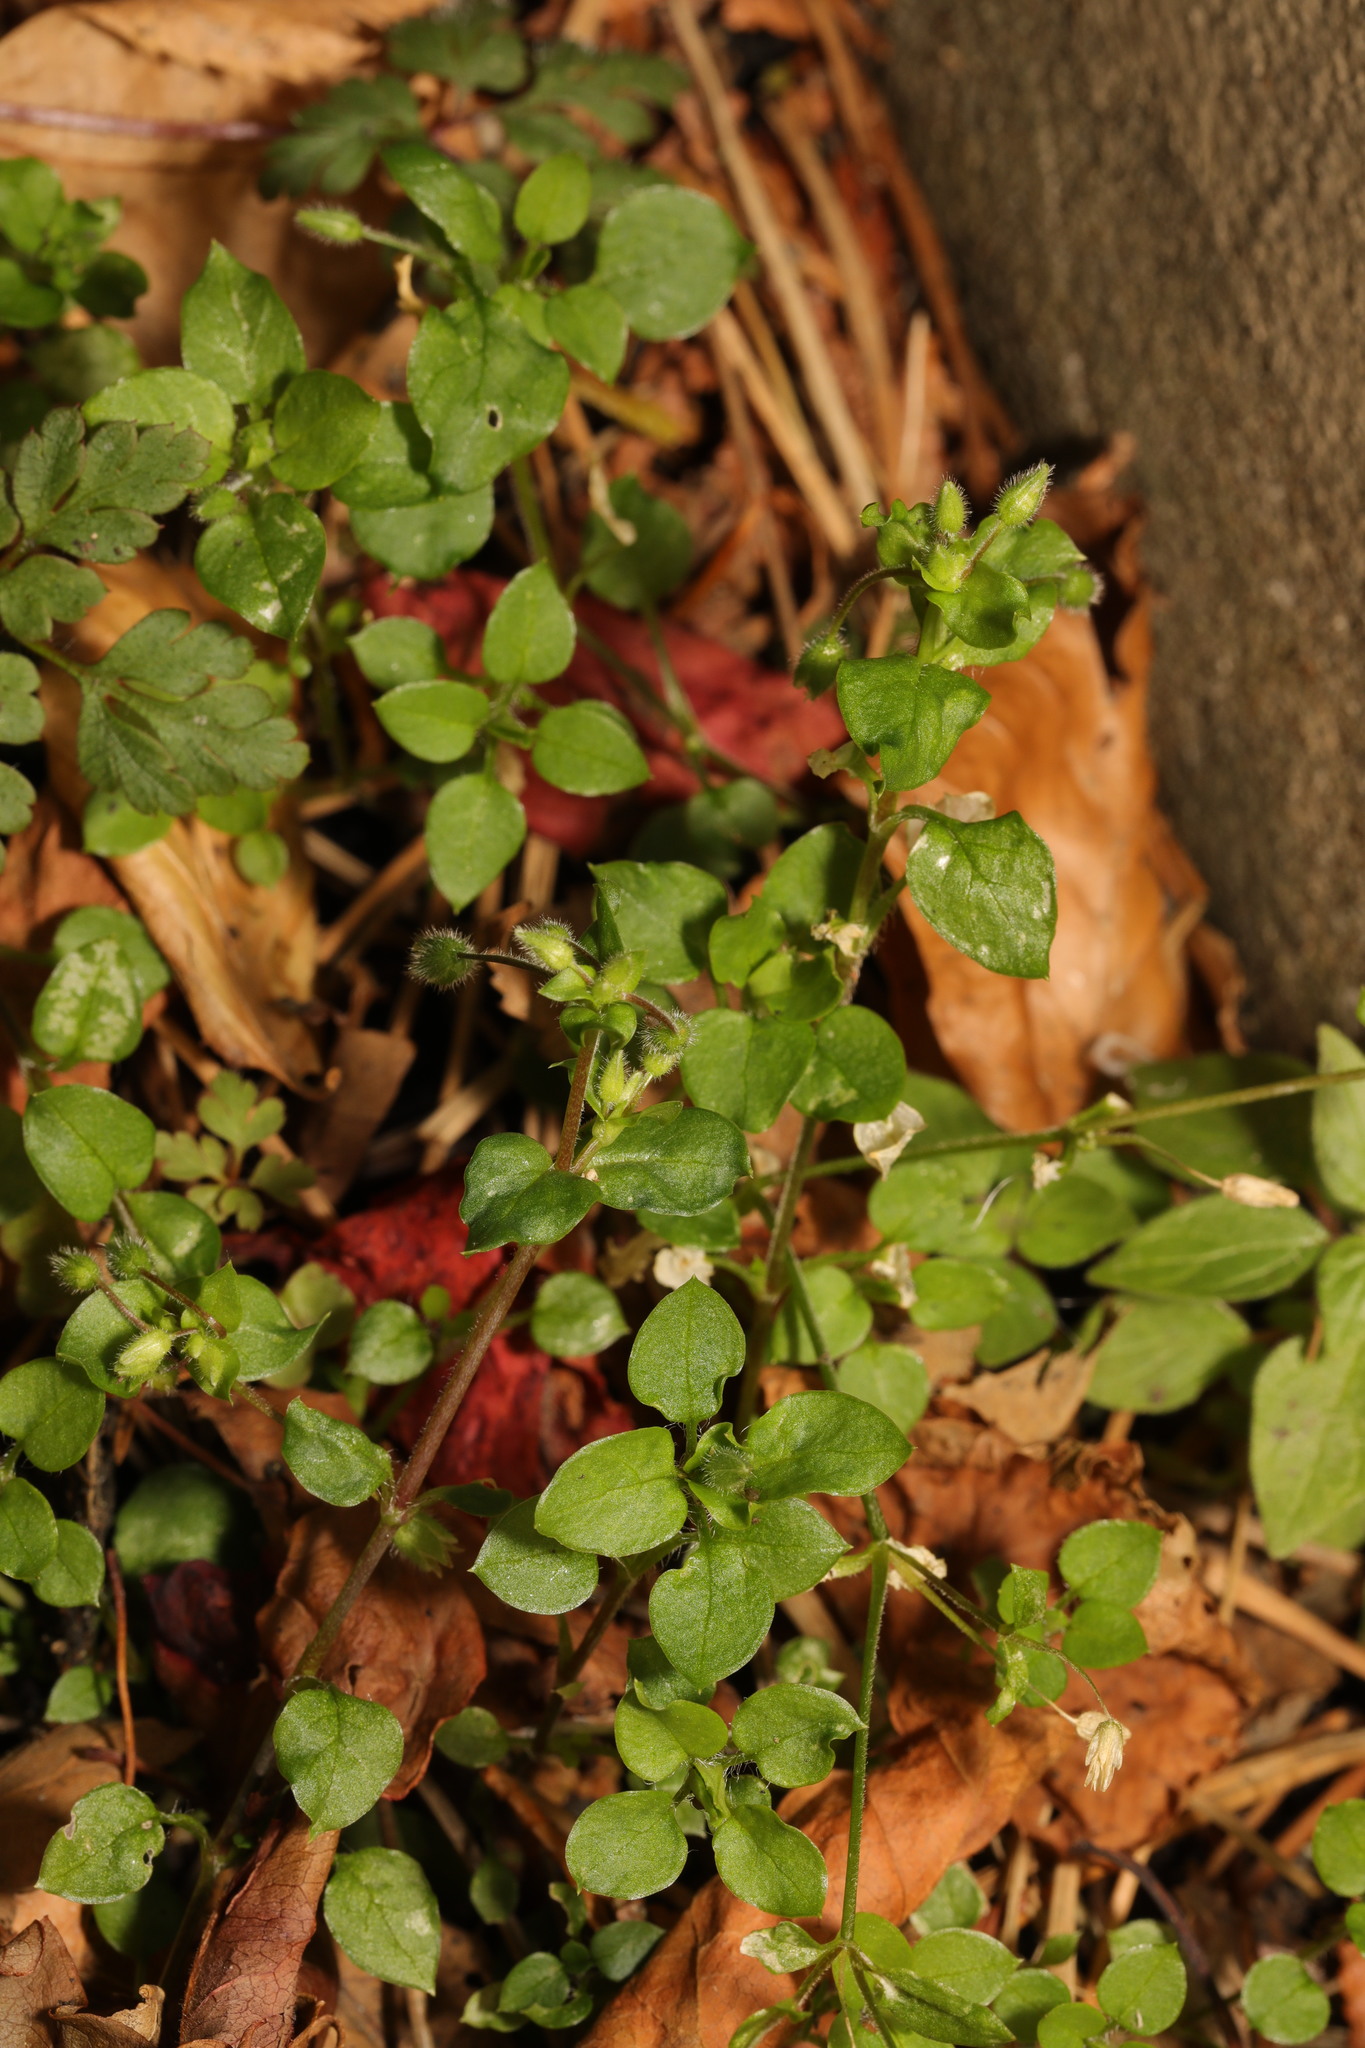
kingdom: Plantae
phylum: Tracheophyta
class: Magnoliopsida
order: Caryophyllales
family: Caryophyllaceae
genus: Stellaria
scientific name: Stellaria media
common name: Common chickweed
